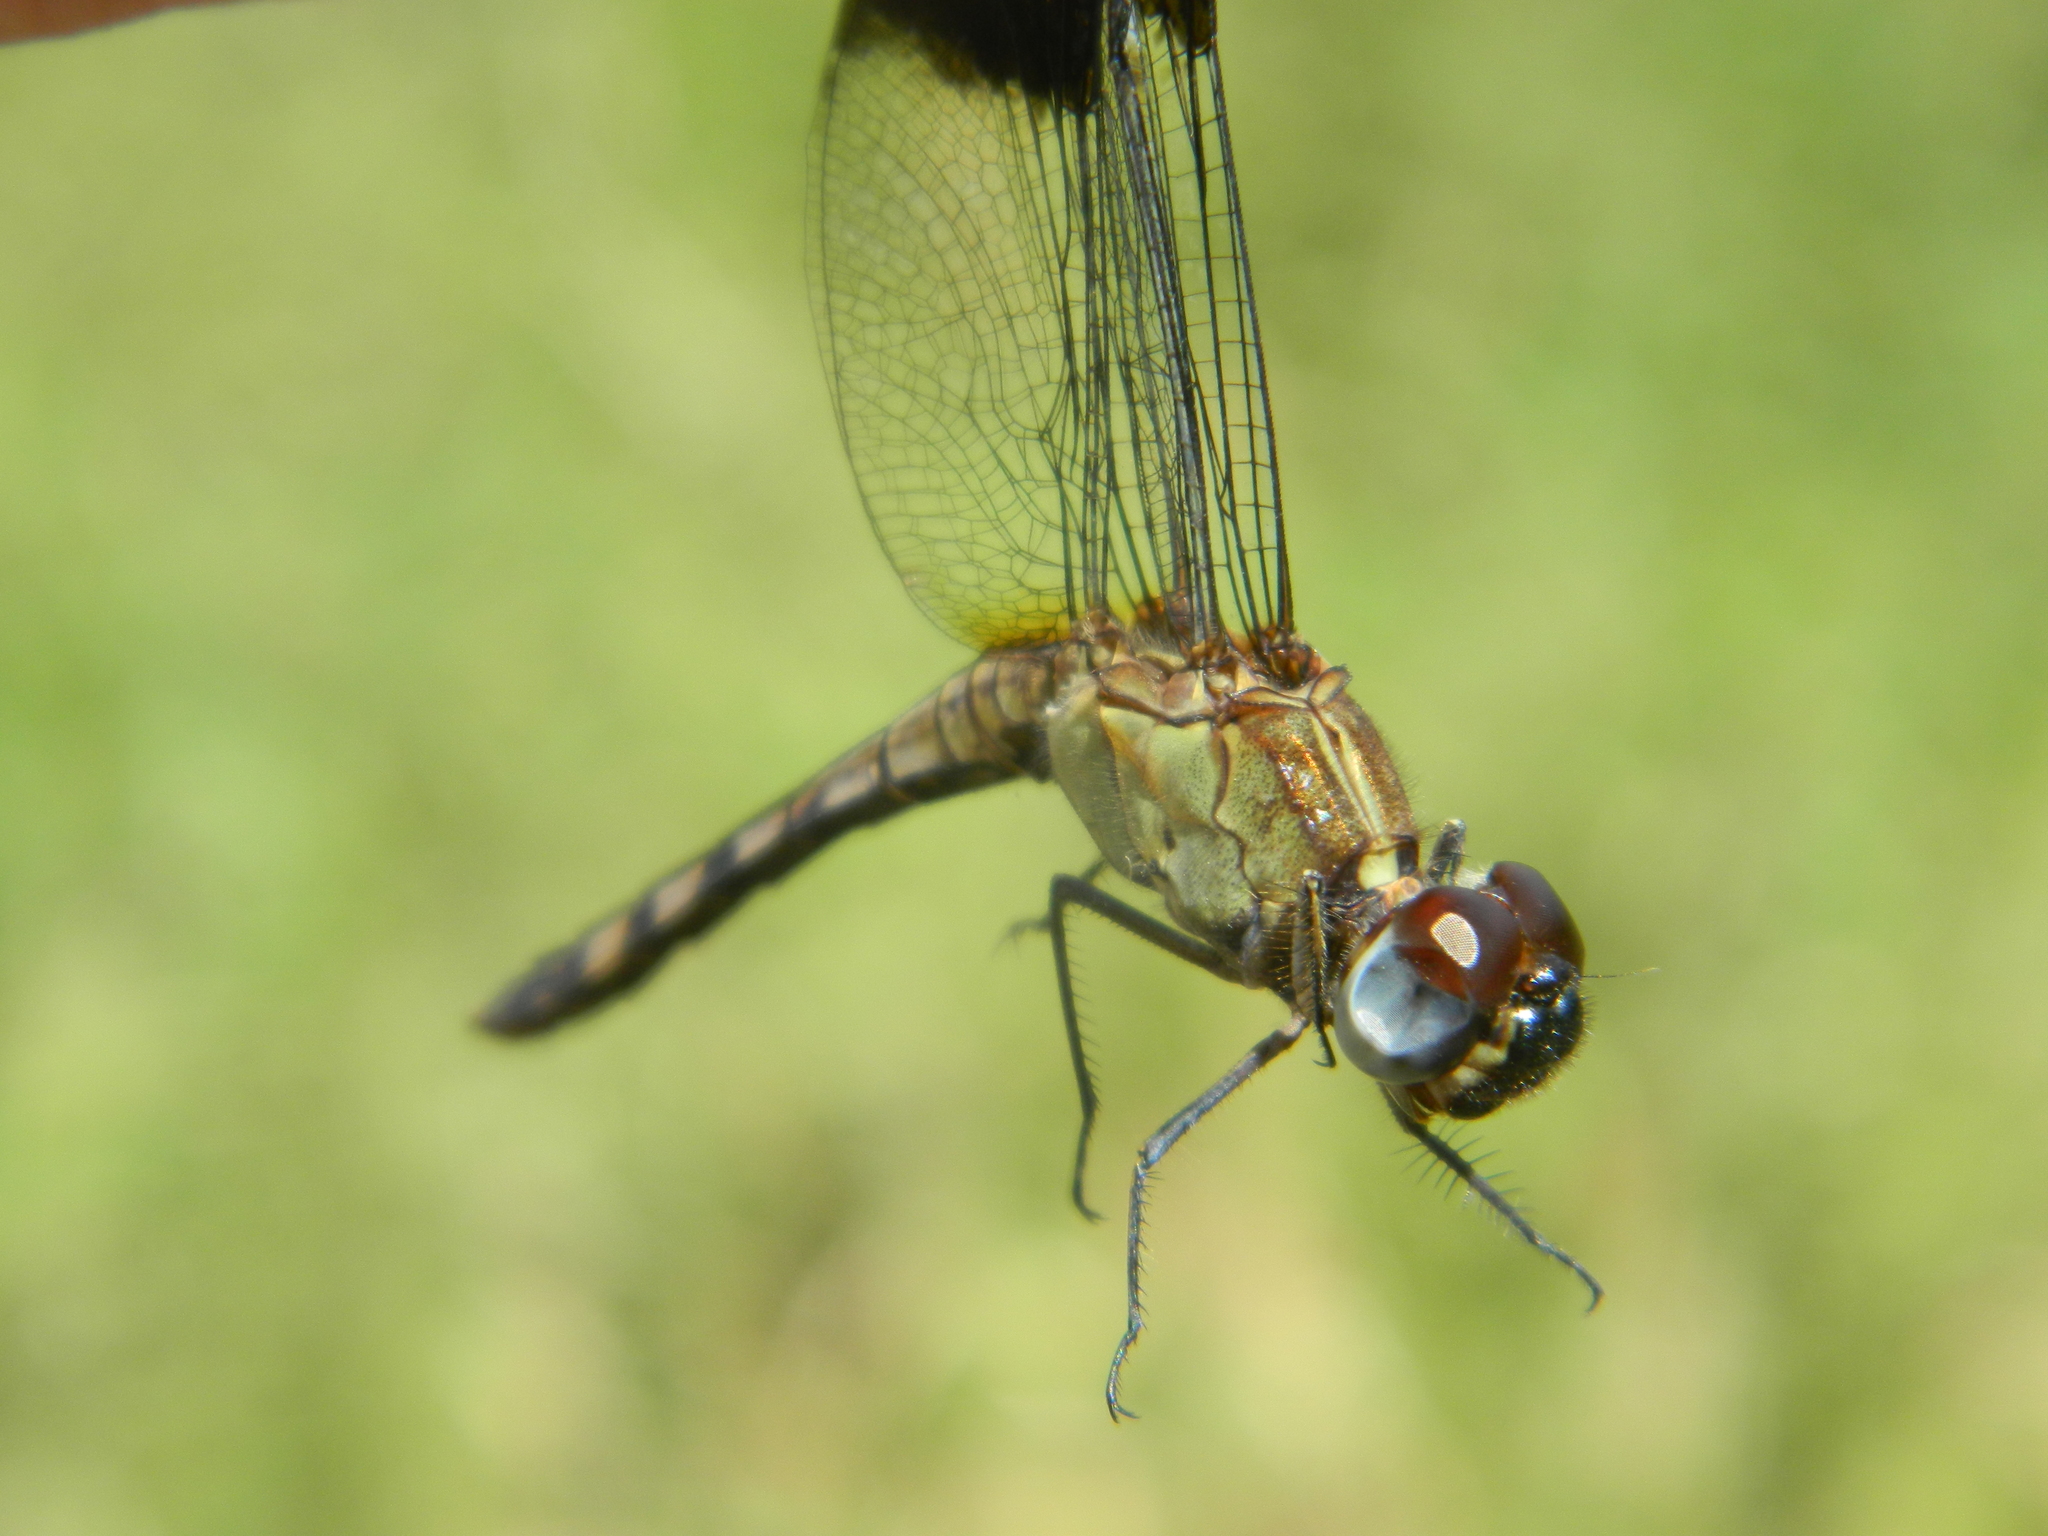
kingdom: Animalia
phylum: Arthropoda
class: Insecta
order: Odonata
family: Libellulidae
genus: Erythrodiplax
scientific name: Erythrodiplax umbrata
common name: Band-winged dragonlet
